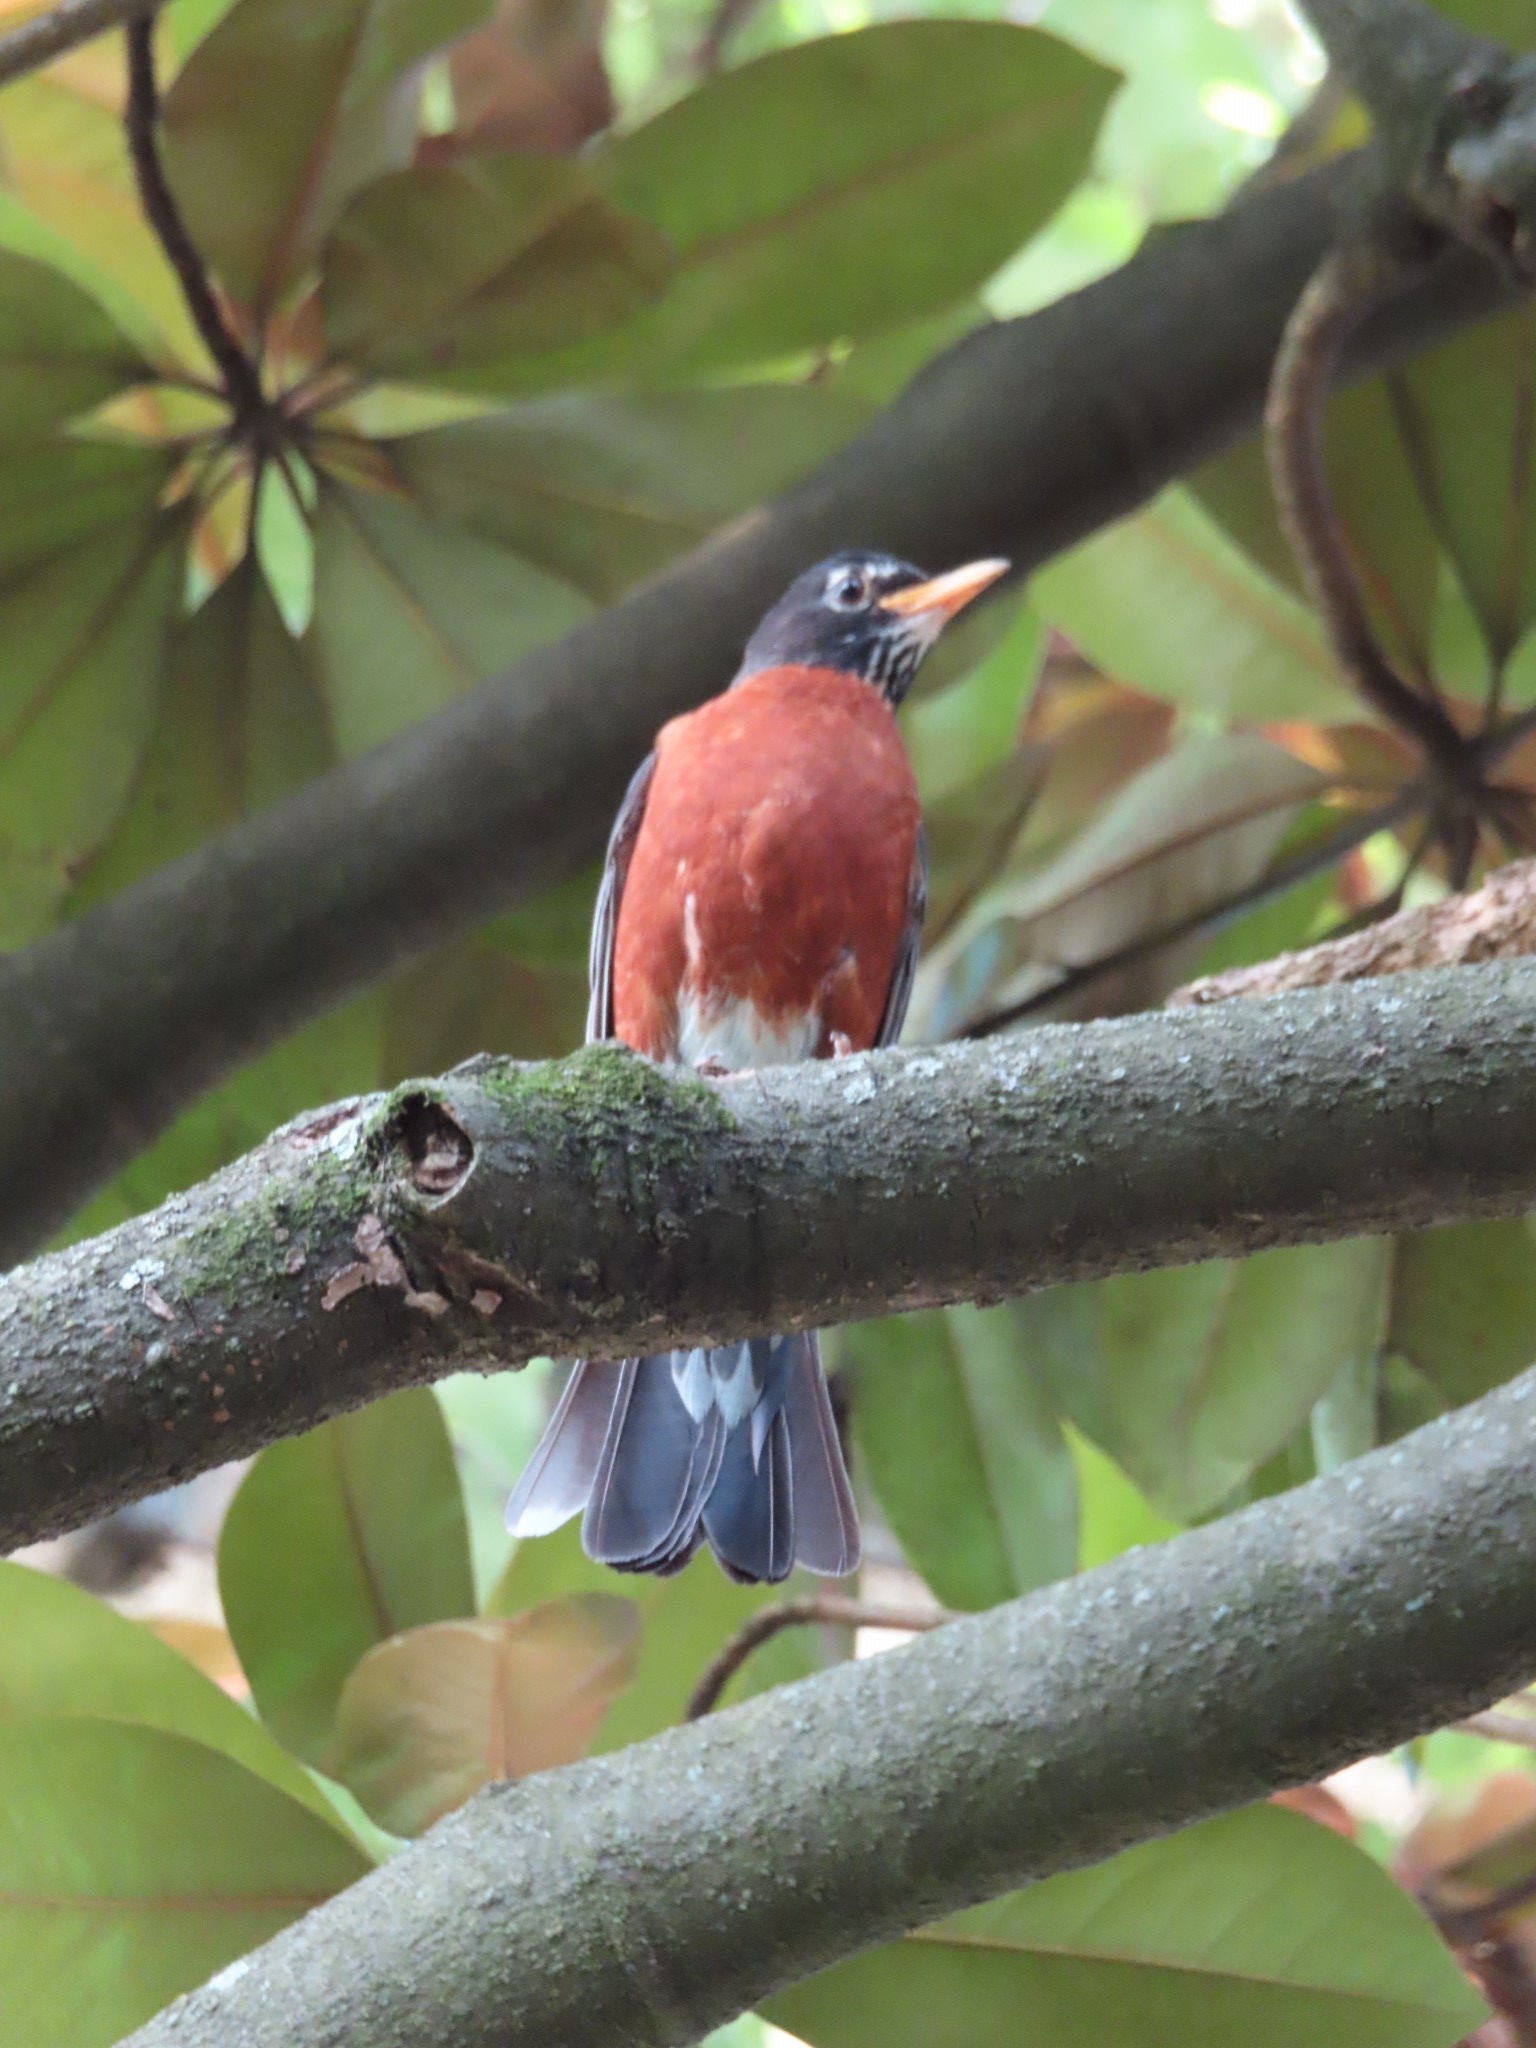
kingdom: Animalia
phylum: Chordata
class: Aves
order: Passeriformes
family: Turdidae
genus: Turdus
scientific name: Turdus migratorius
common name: American robin
